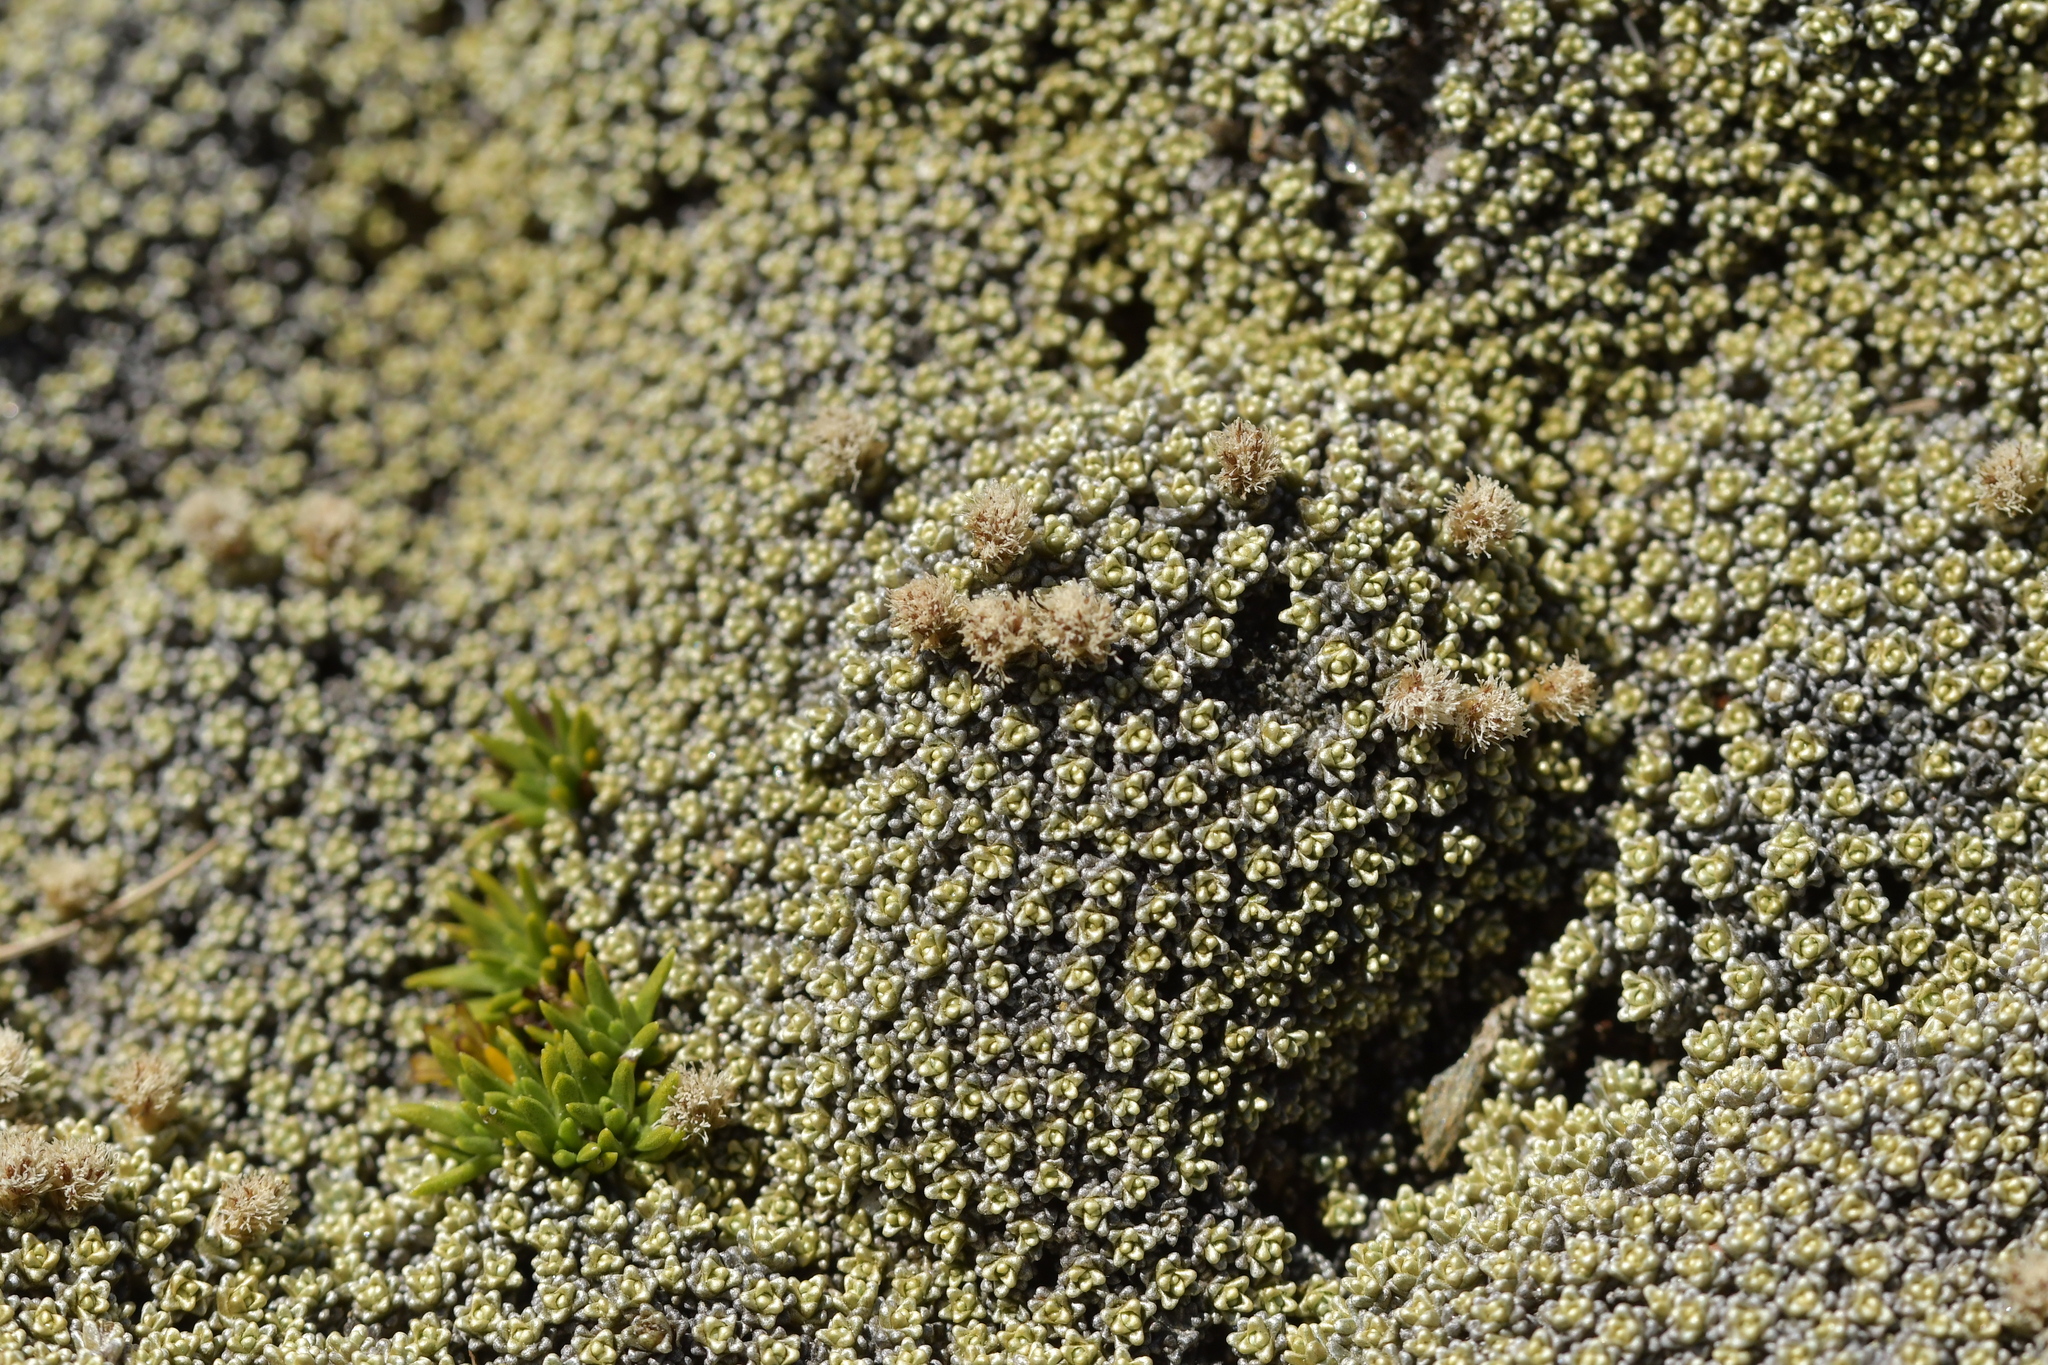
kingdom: Plantae
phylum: Tracheophyta
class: Magnoliopsida
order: Asterales
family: Asteraceae
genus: Raoulia
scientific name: Raoulia hectorii
